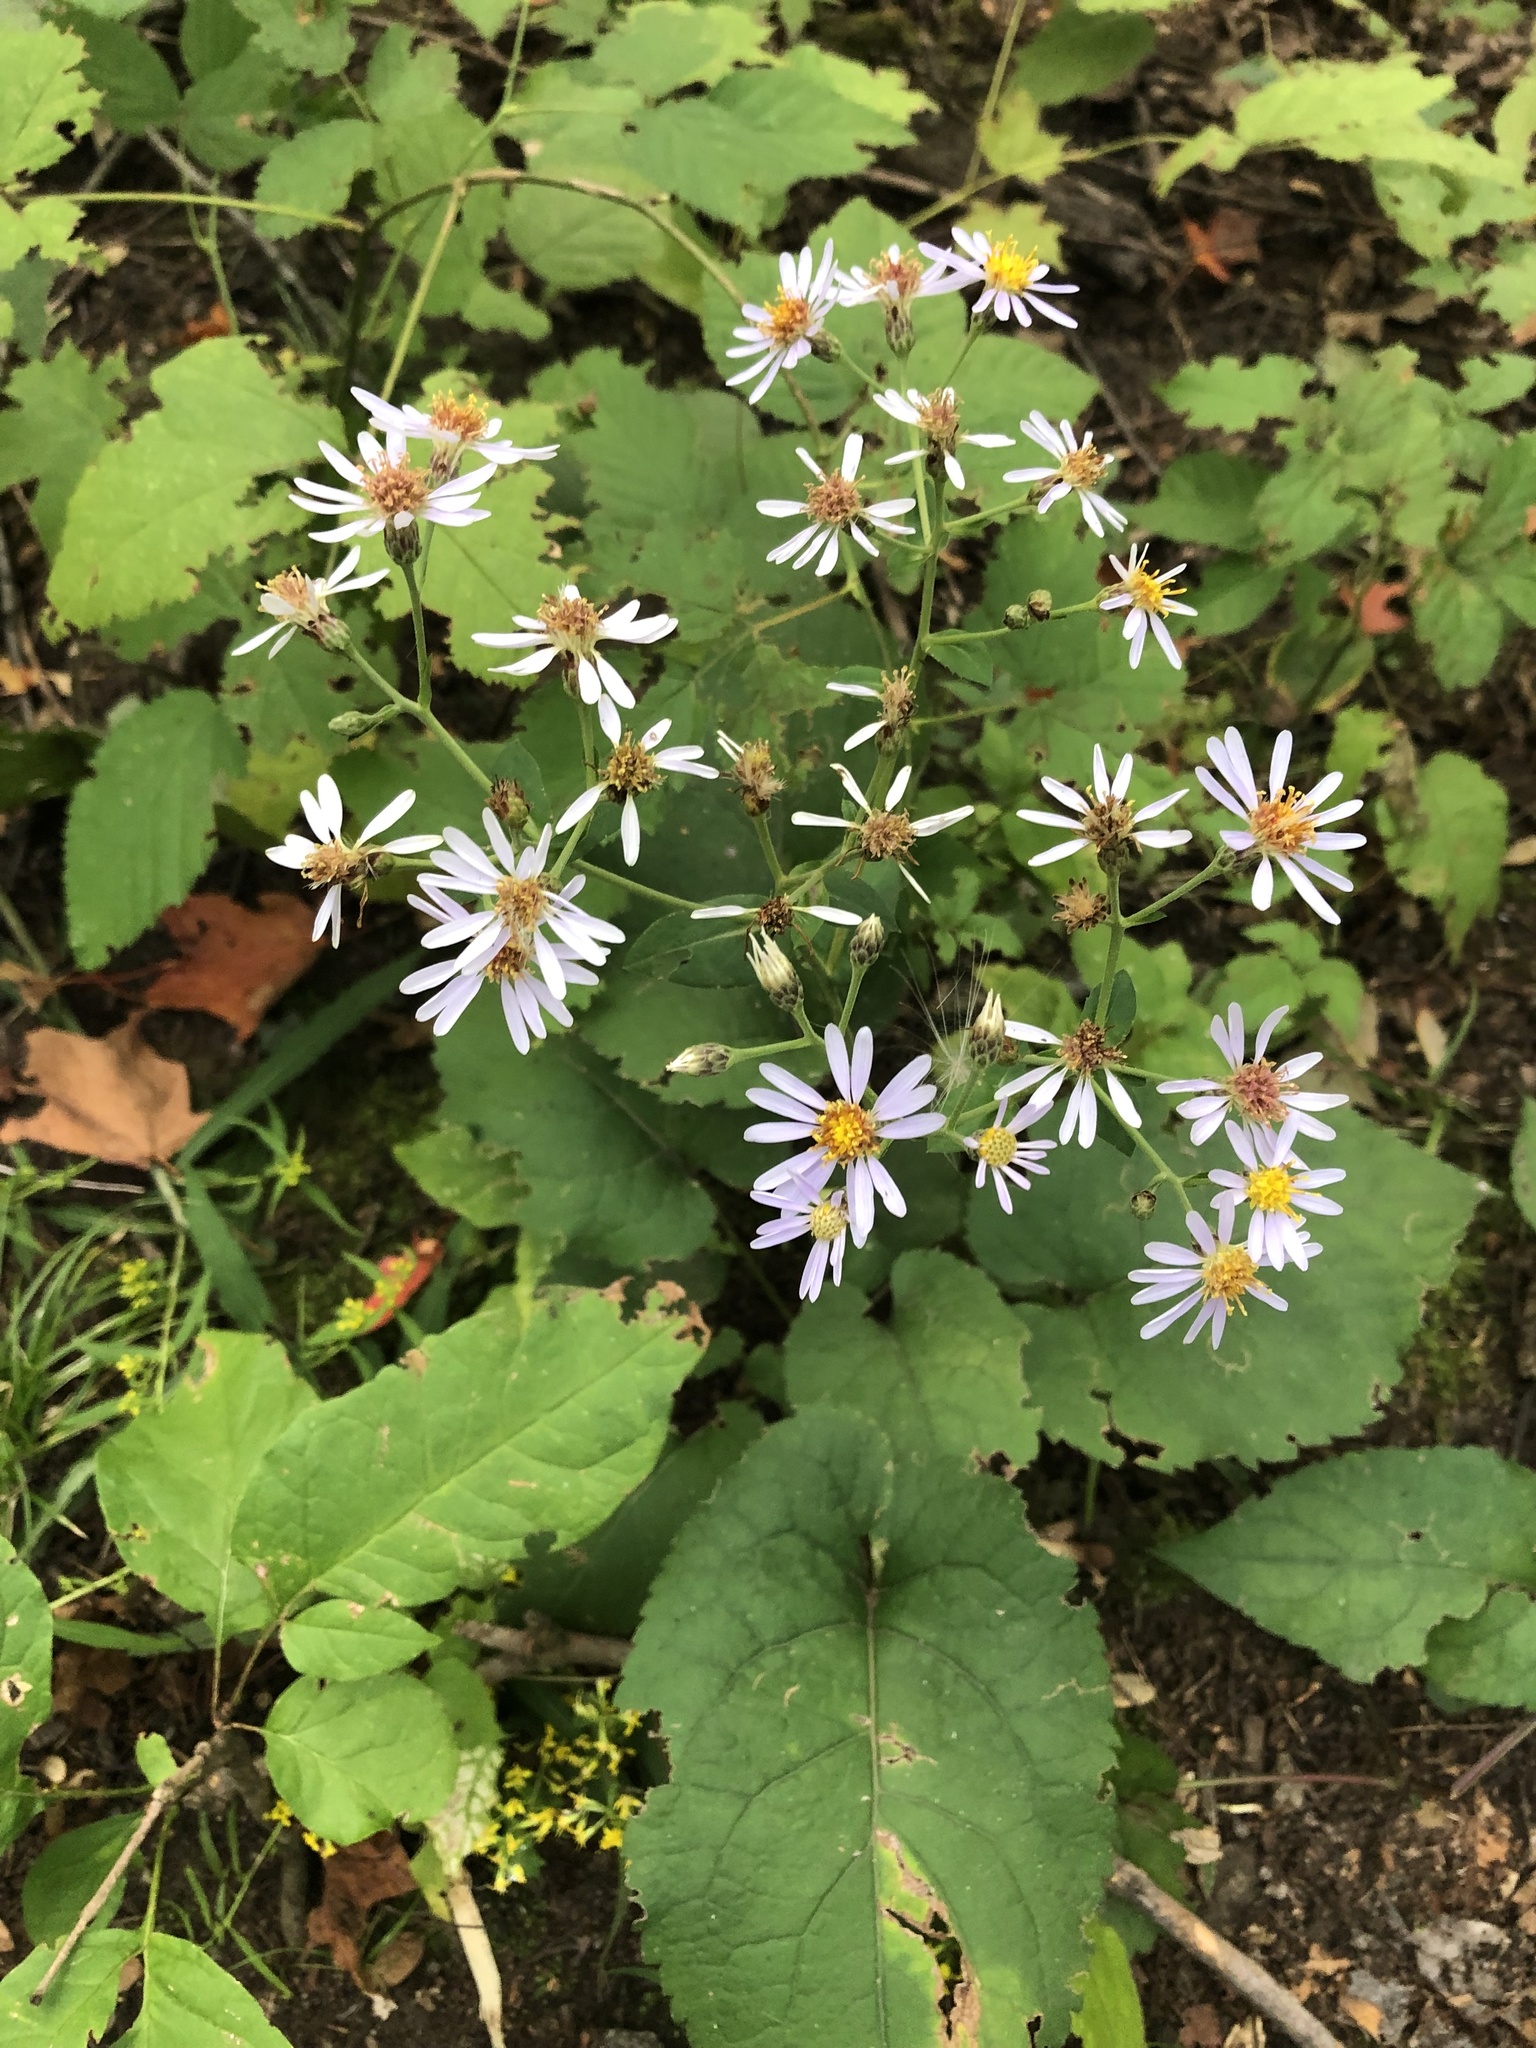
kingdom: Plantae
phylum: Tracheophyta
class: Magnoliopsida
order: Asterales
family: Asteraceae
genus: Eurybia
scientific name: Eurybia macrophylla
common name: Big-leaved aster
